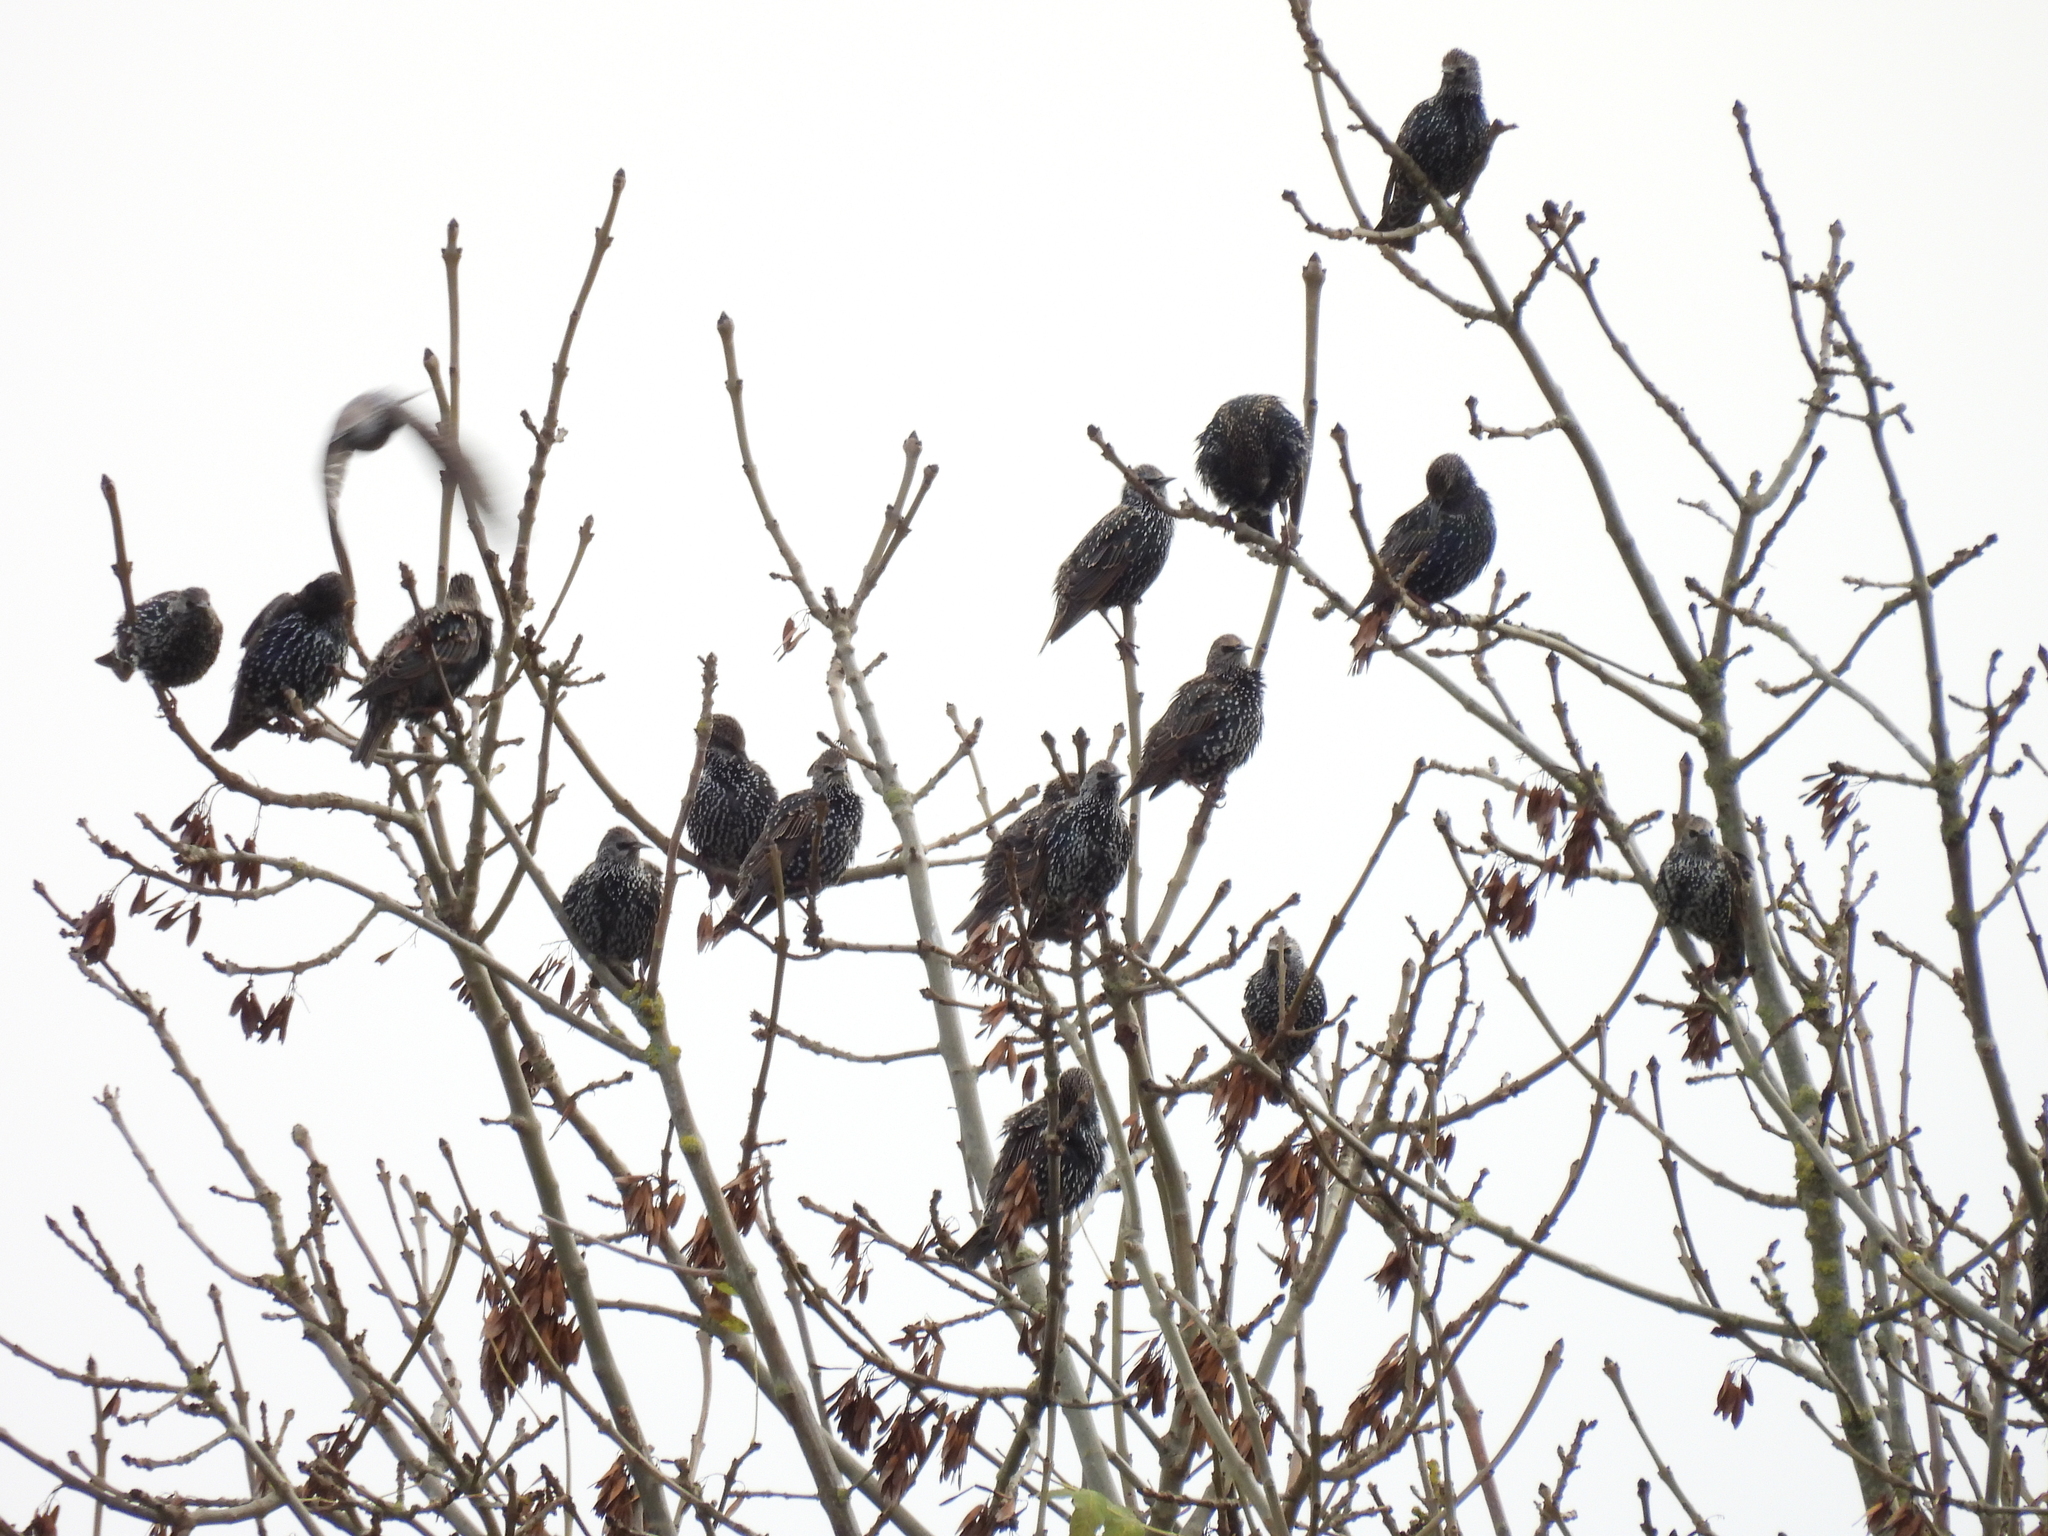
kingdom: Animalia
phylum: Chordata
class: Aves
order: Passeriformes
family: Sturnidae
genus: Sturnus
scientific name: Sturnus vulgaris
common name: Common starling
